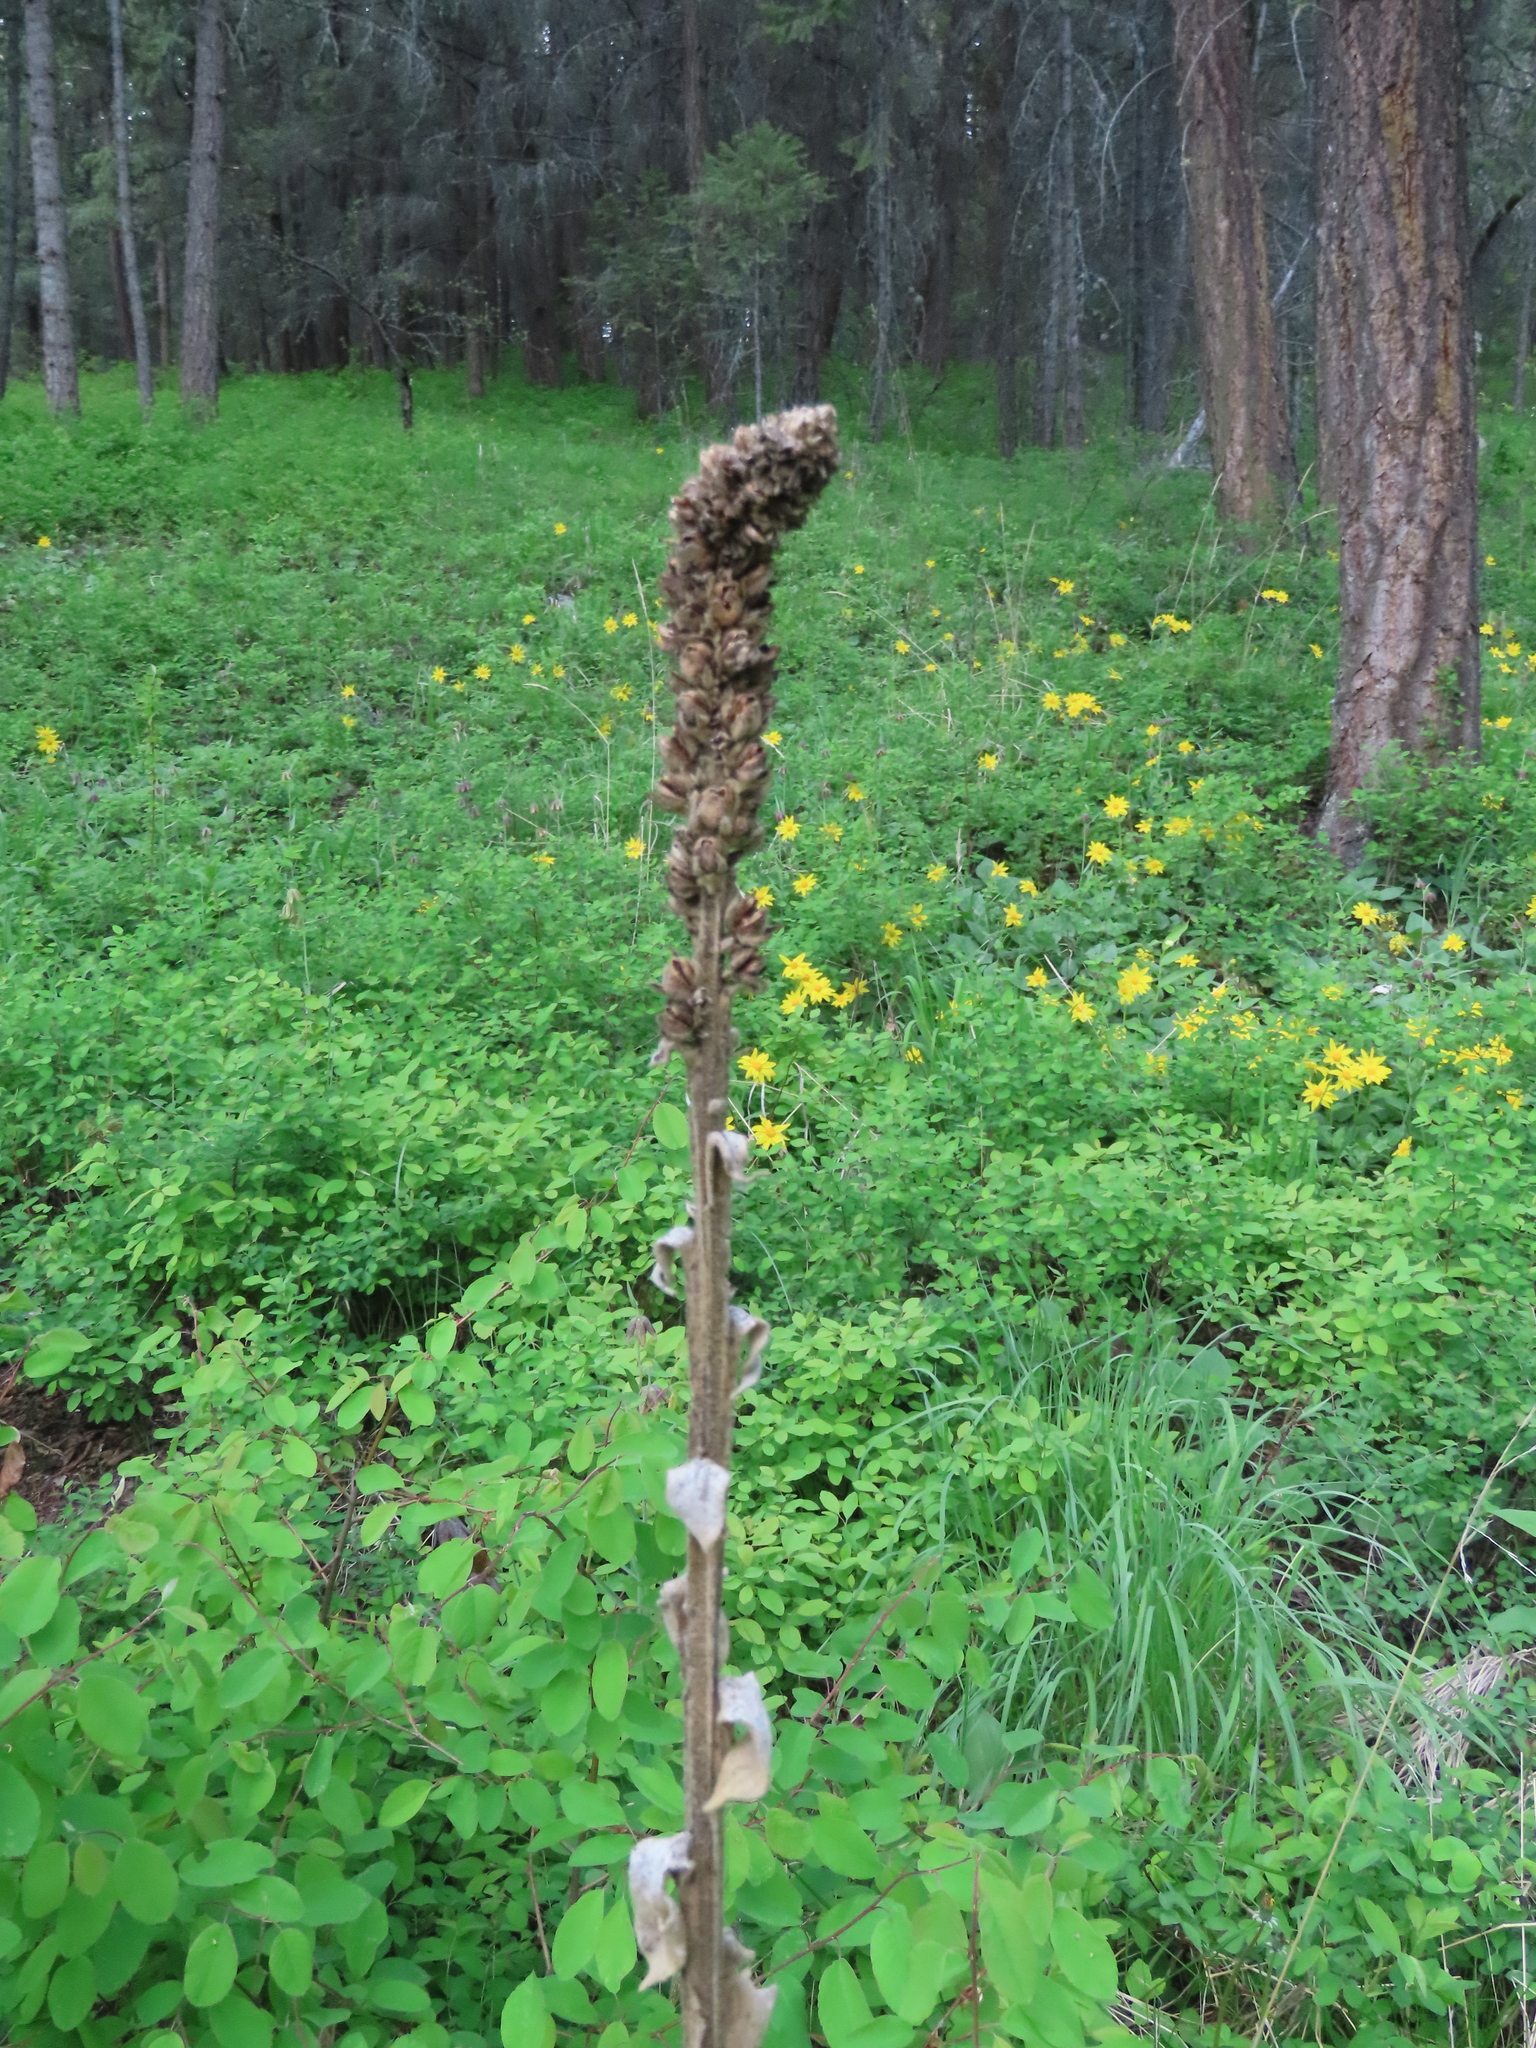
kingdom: Plantae
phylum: Tracheophyta
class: Magnoliopsida
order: Lamiales
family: Scrophulariaceae
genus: Verbascum
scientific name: Verbascum thapsus
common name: Common mullein
